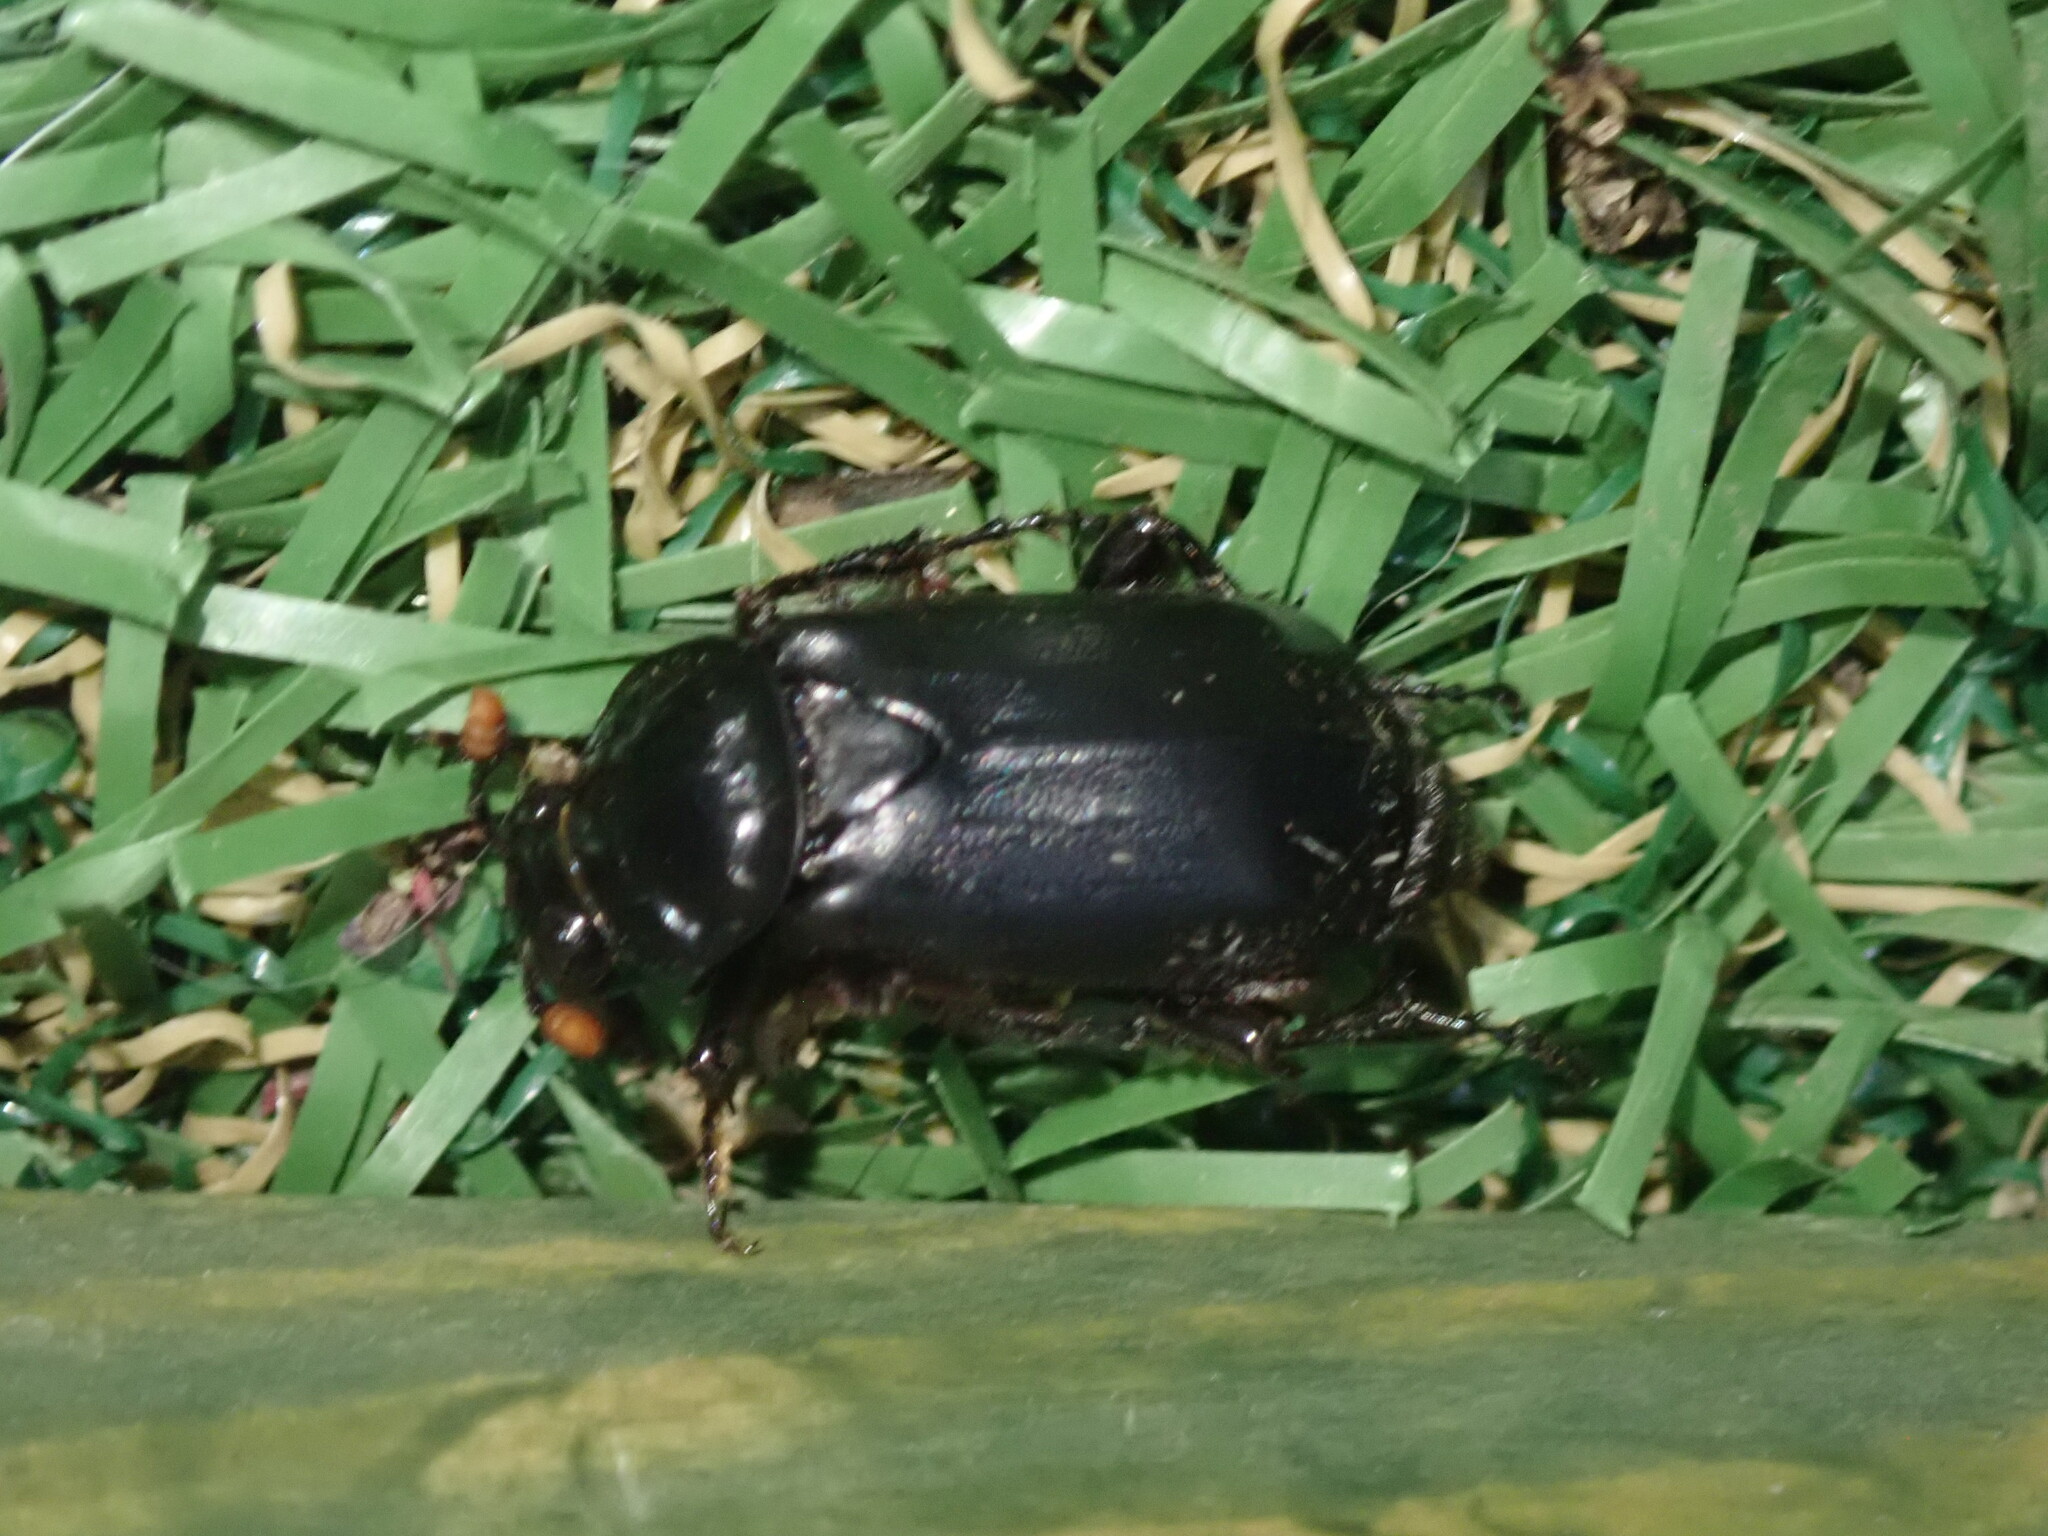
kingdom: Animalia
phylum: Arthropoda
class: Insecta
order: Coleoptera
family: Staphylinidae
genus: Nicrophorus
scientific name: Nicrophorus humator
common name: Black sexton beetle
